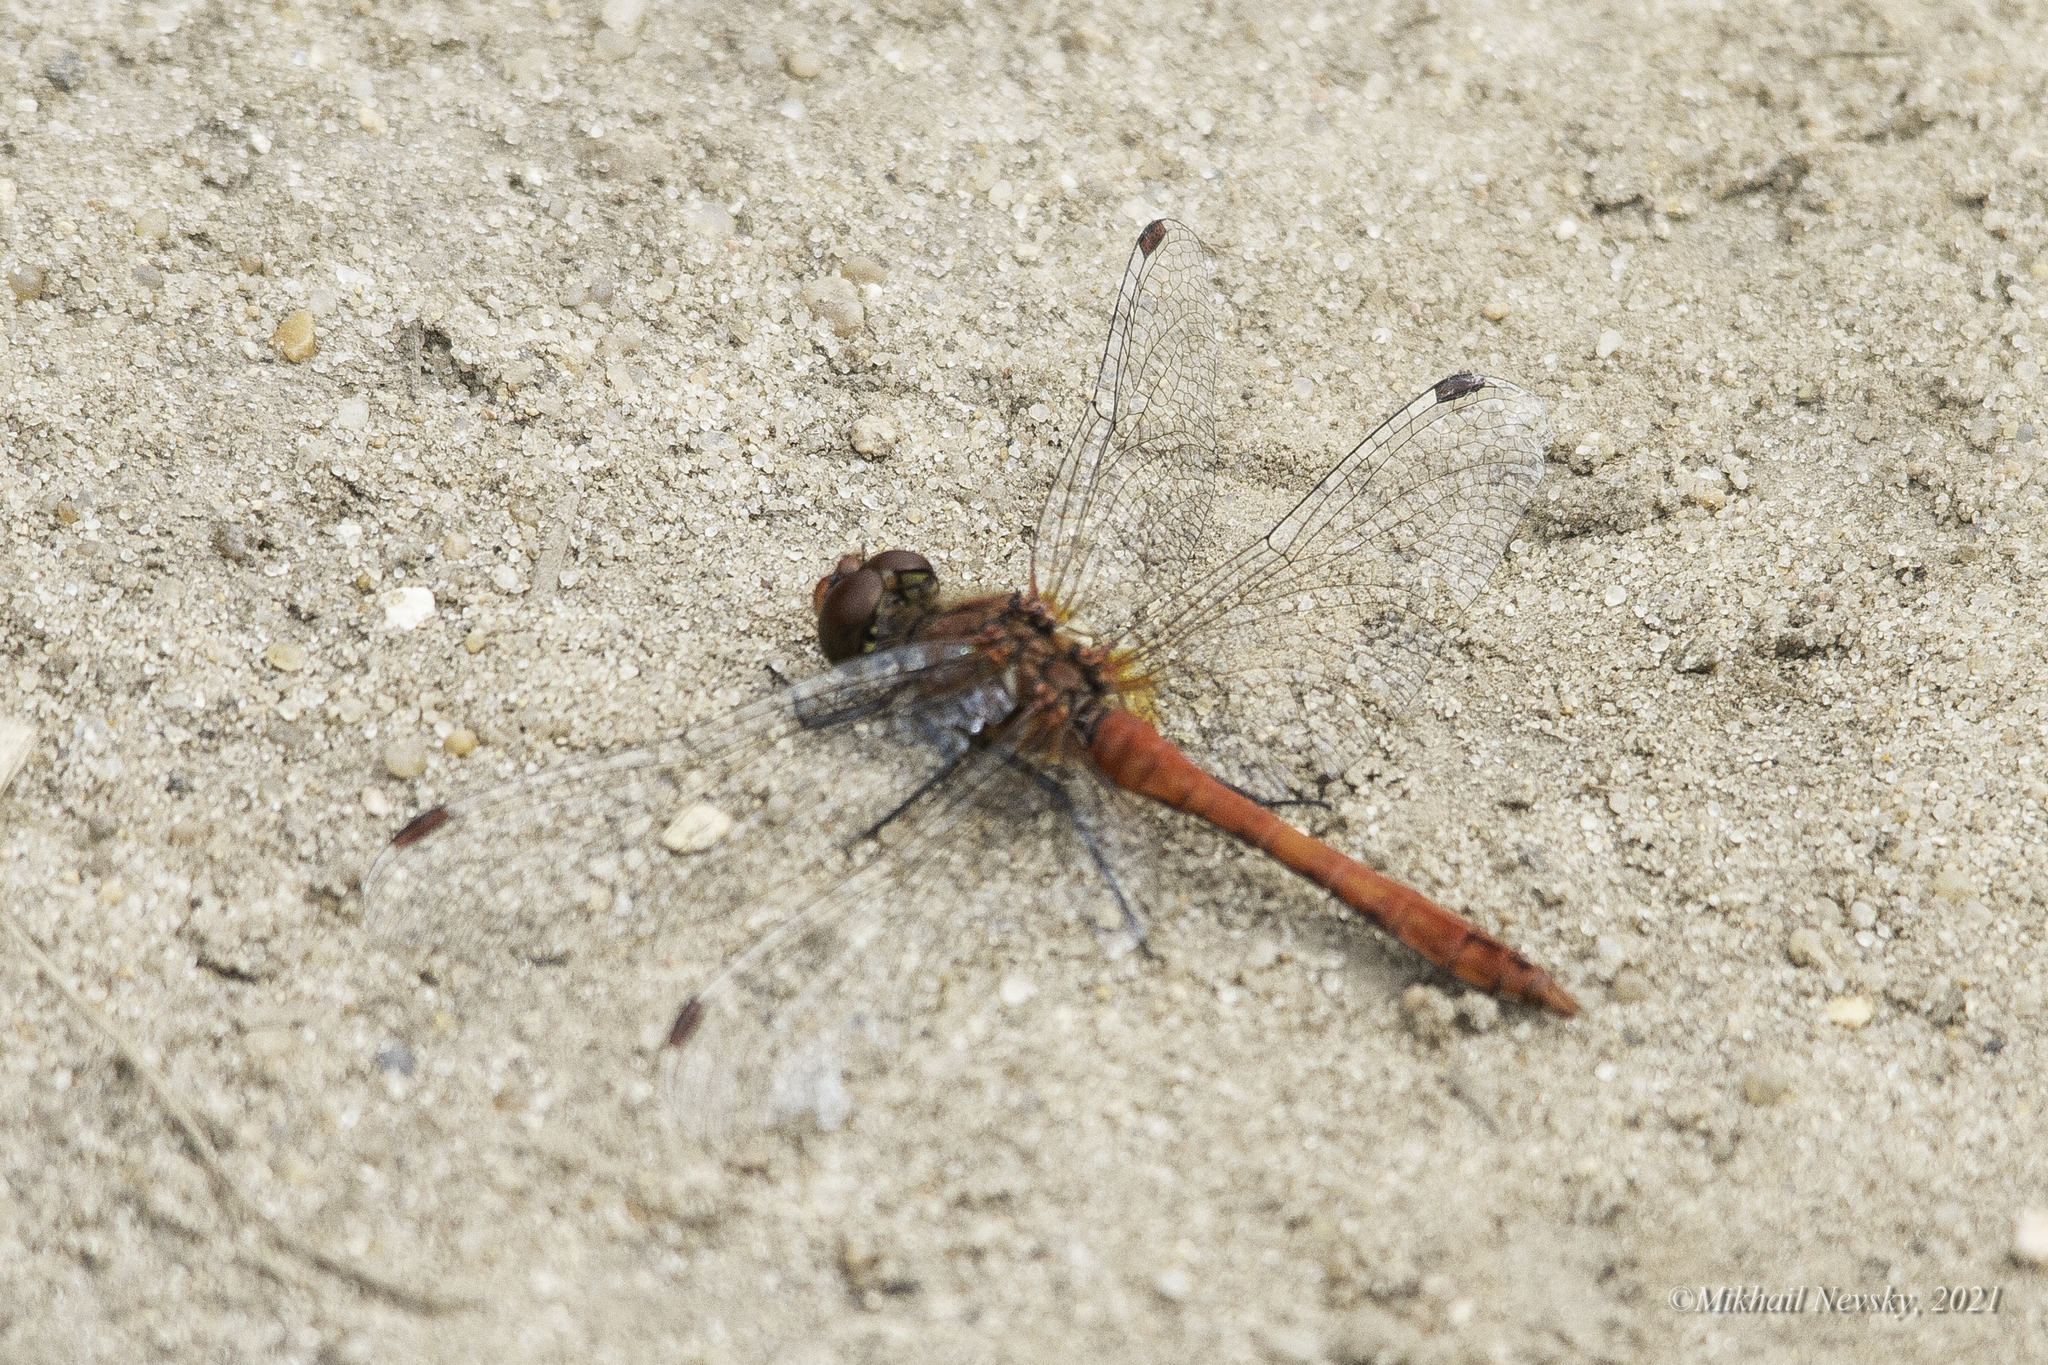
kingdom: Animalia
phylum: Arthropoda
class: Insecta
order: Odonata
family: Libellulidae
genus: Sympetrum
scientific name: Sympetrum sanguineum
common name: Ruddy darter
